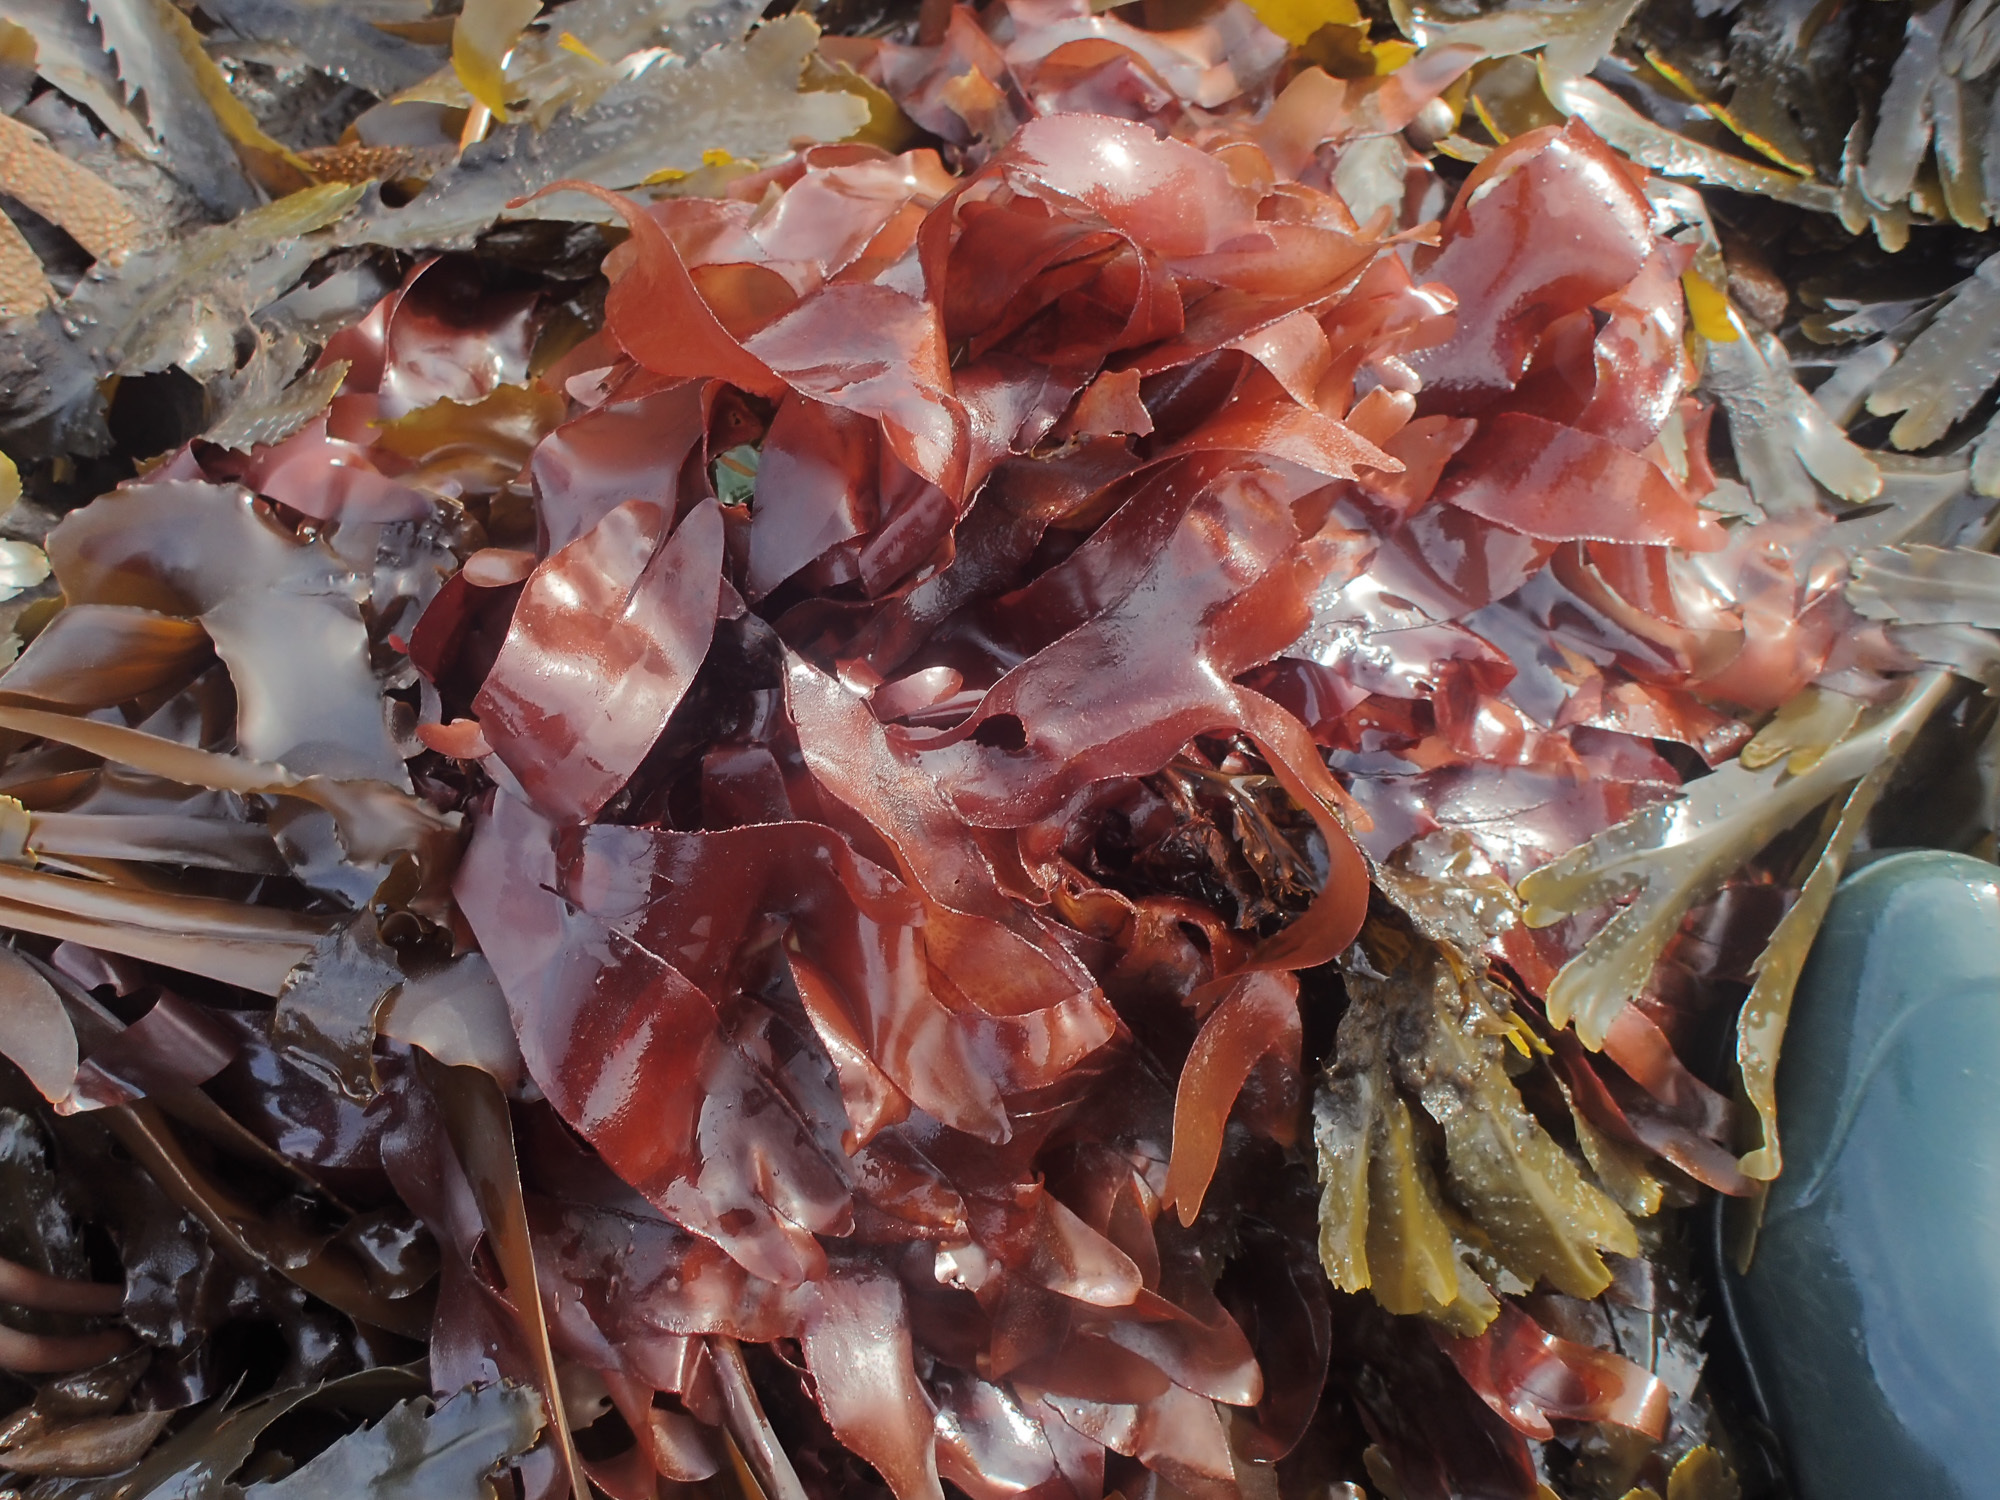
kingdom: Plantae
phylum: Rhodophyta
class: Florideophyceae
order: Palmariales
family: Palmariaceae
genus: Palmaria
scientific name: Palmaria palmata
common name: Dulse
